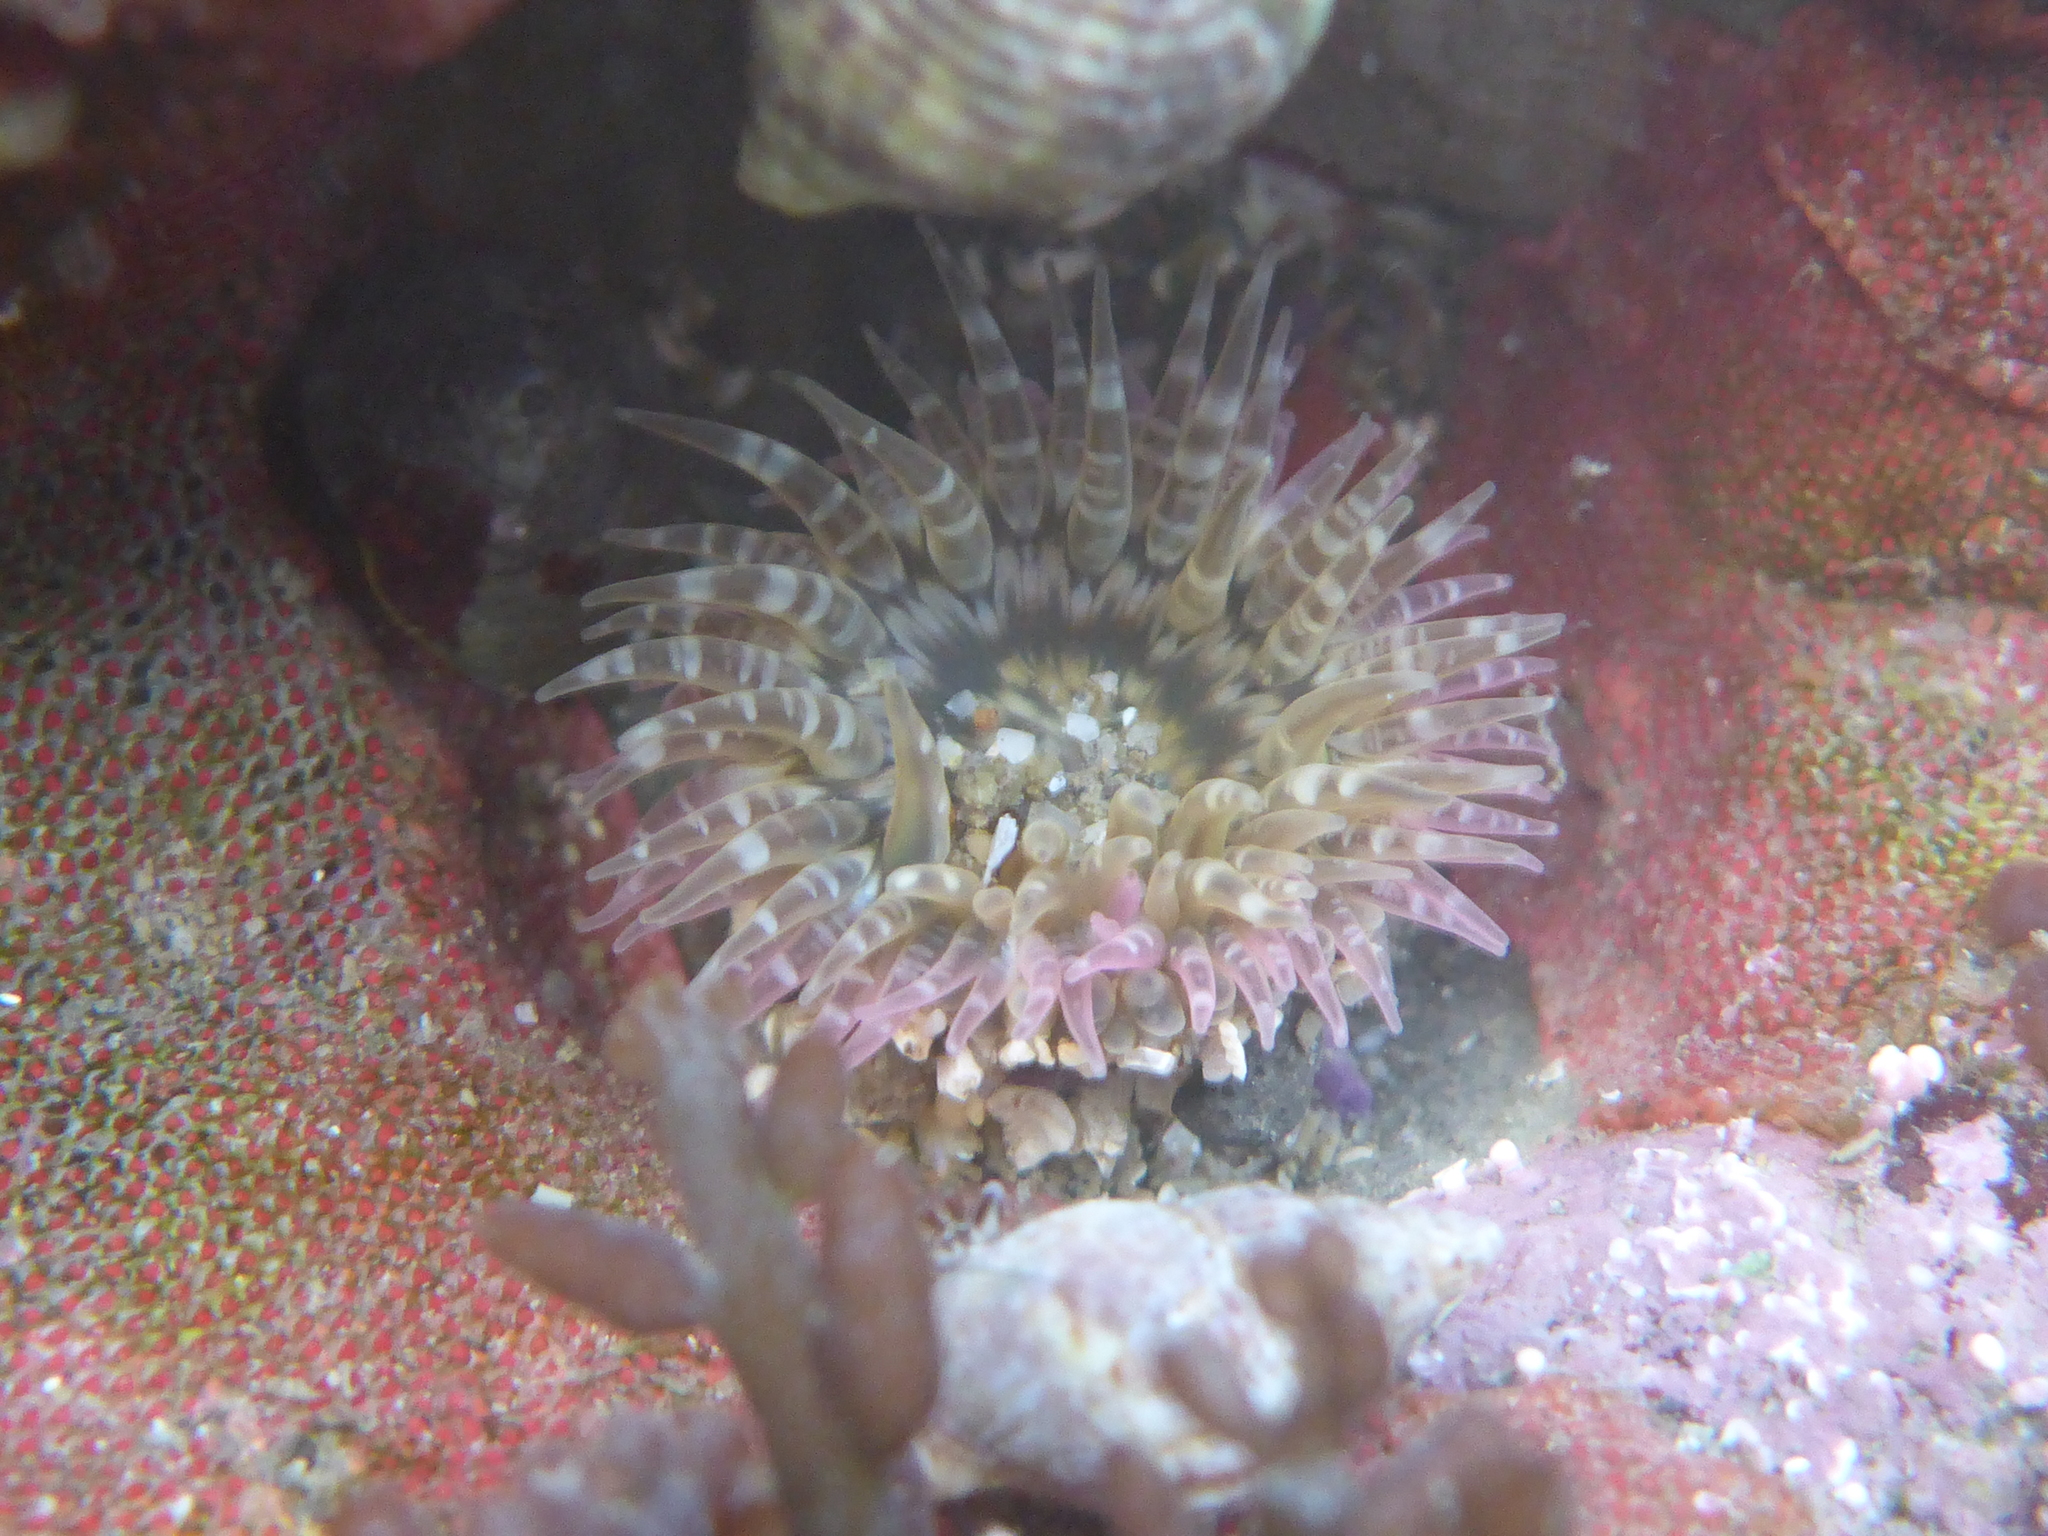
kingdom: Animalia
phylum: Cnidaria
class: Anthozoa
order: Actiniaria
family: Actiniidae
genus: Anthopleura
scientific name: Anthopleura artemisia
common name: Buried sea anemone
